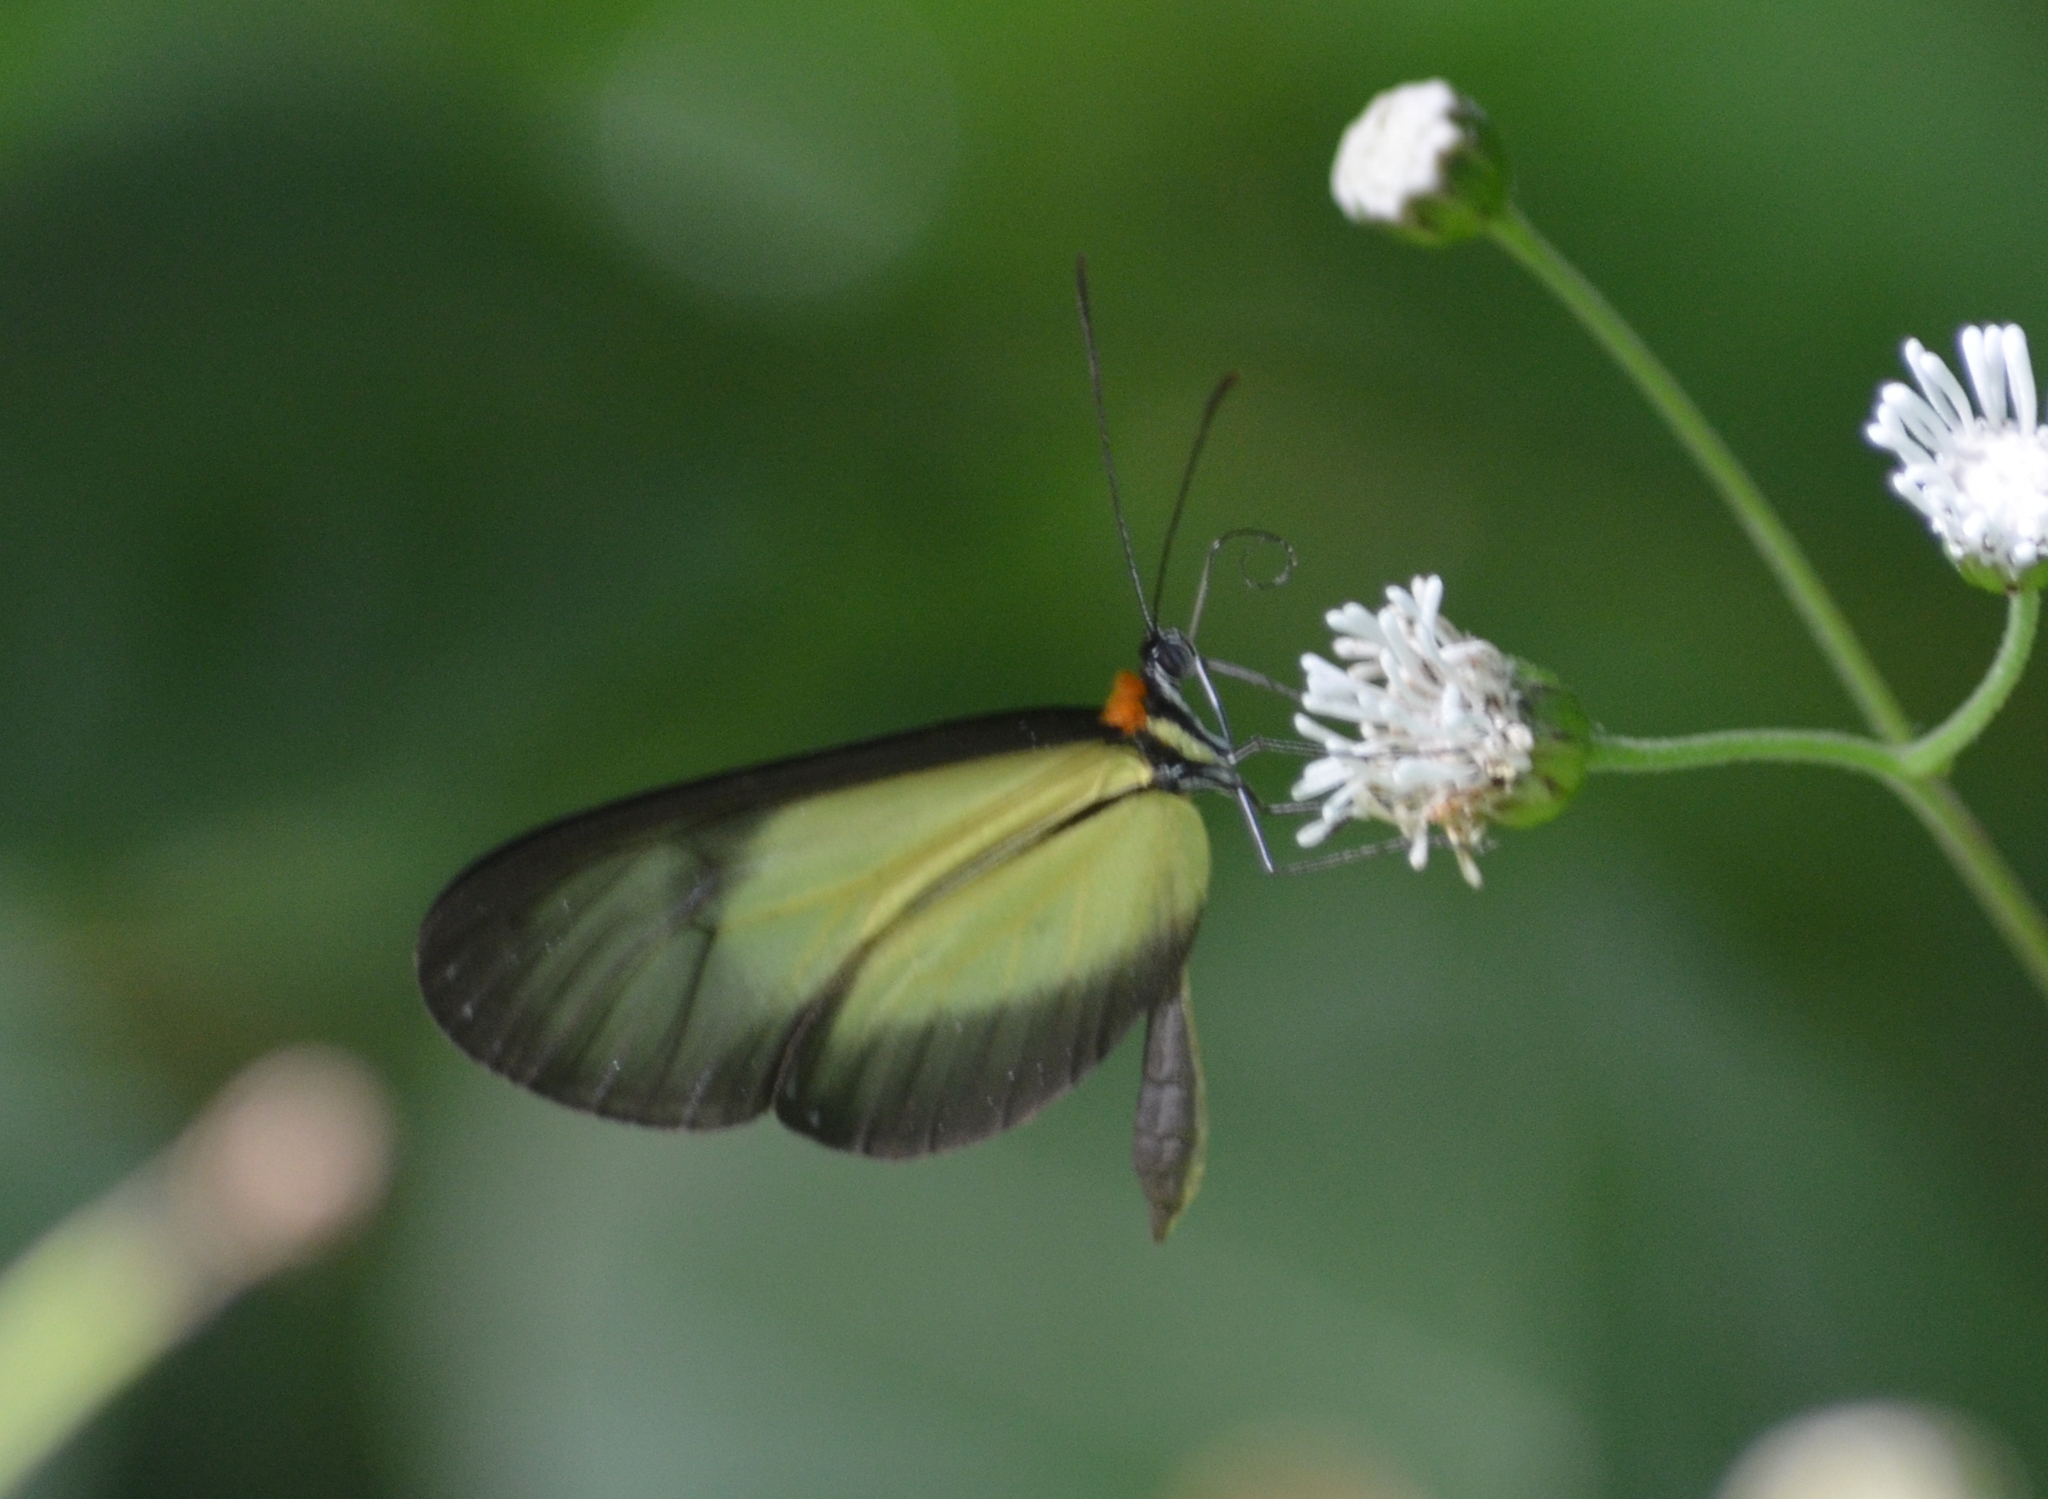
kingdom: Animalia
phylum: Arthropoda
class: Insecta
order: Lepidoptera
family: Nymphalidae
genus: Scada
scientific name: Scada karschina
